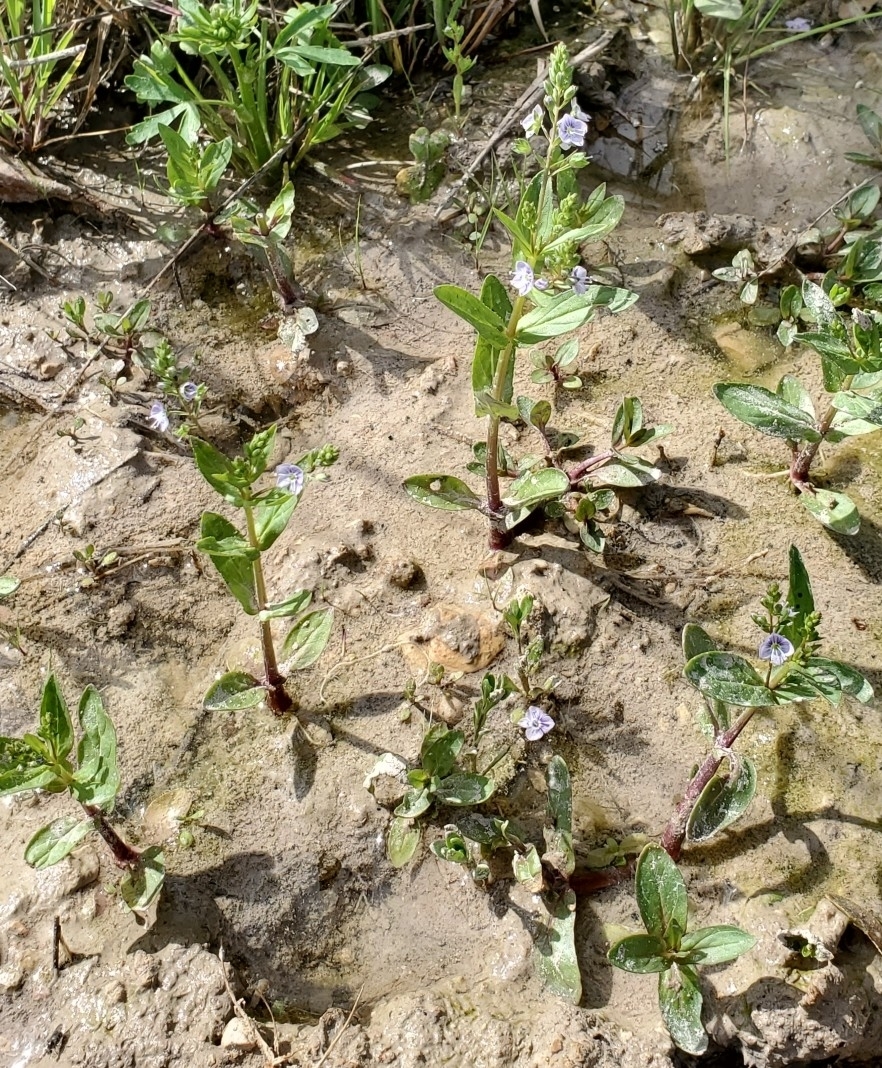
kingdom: Plantae
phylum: Tracheophyta
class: Magnoliopsida
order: Lamiales
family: Plantaginaceae
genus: Veronica
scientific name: Veronica anagallis-aquatica
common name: Water speedwell
